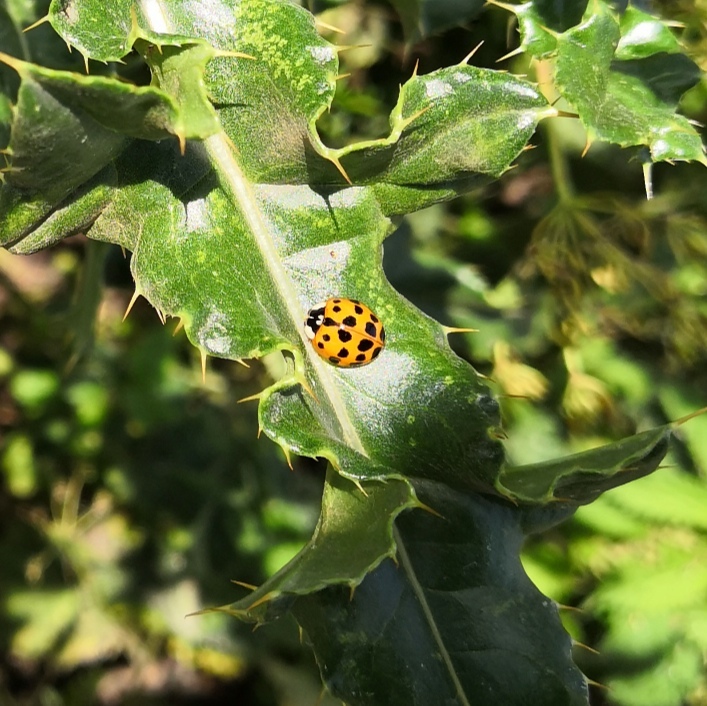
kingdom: Animalia
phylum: Arthropoda
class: Insecta
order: Coleoptera
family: Coccinellidae
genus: Harmonia
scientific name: Harmonia axyridis
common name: Harlequin ladybird
